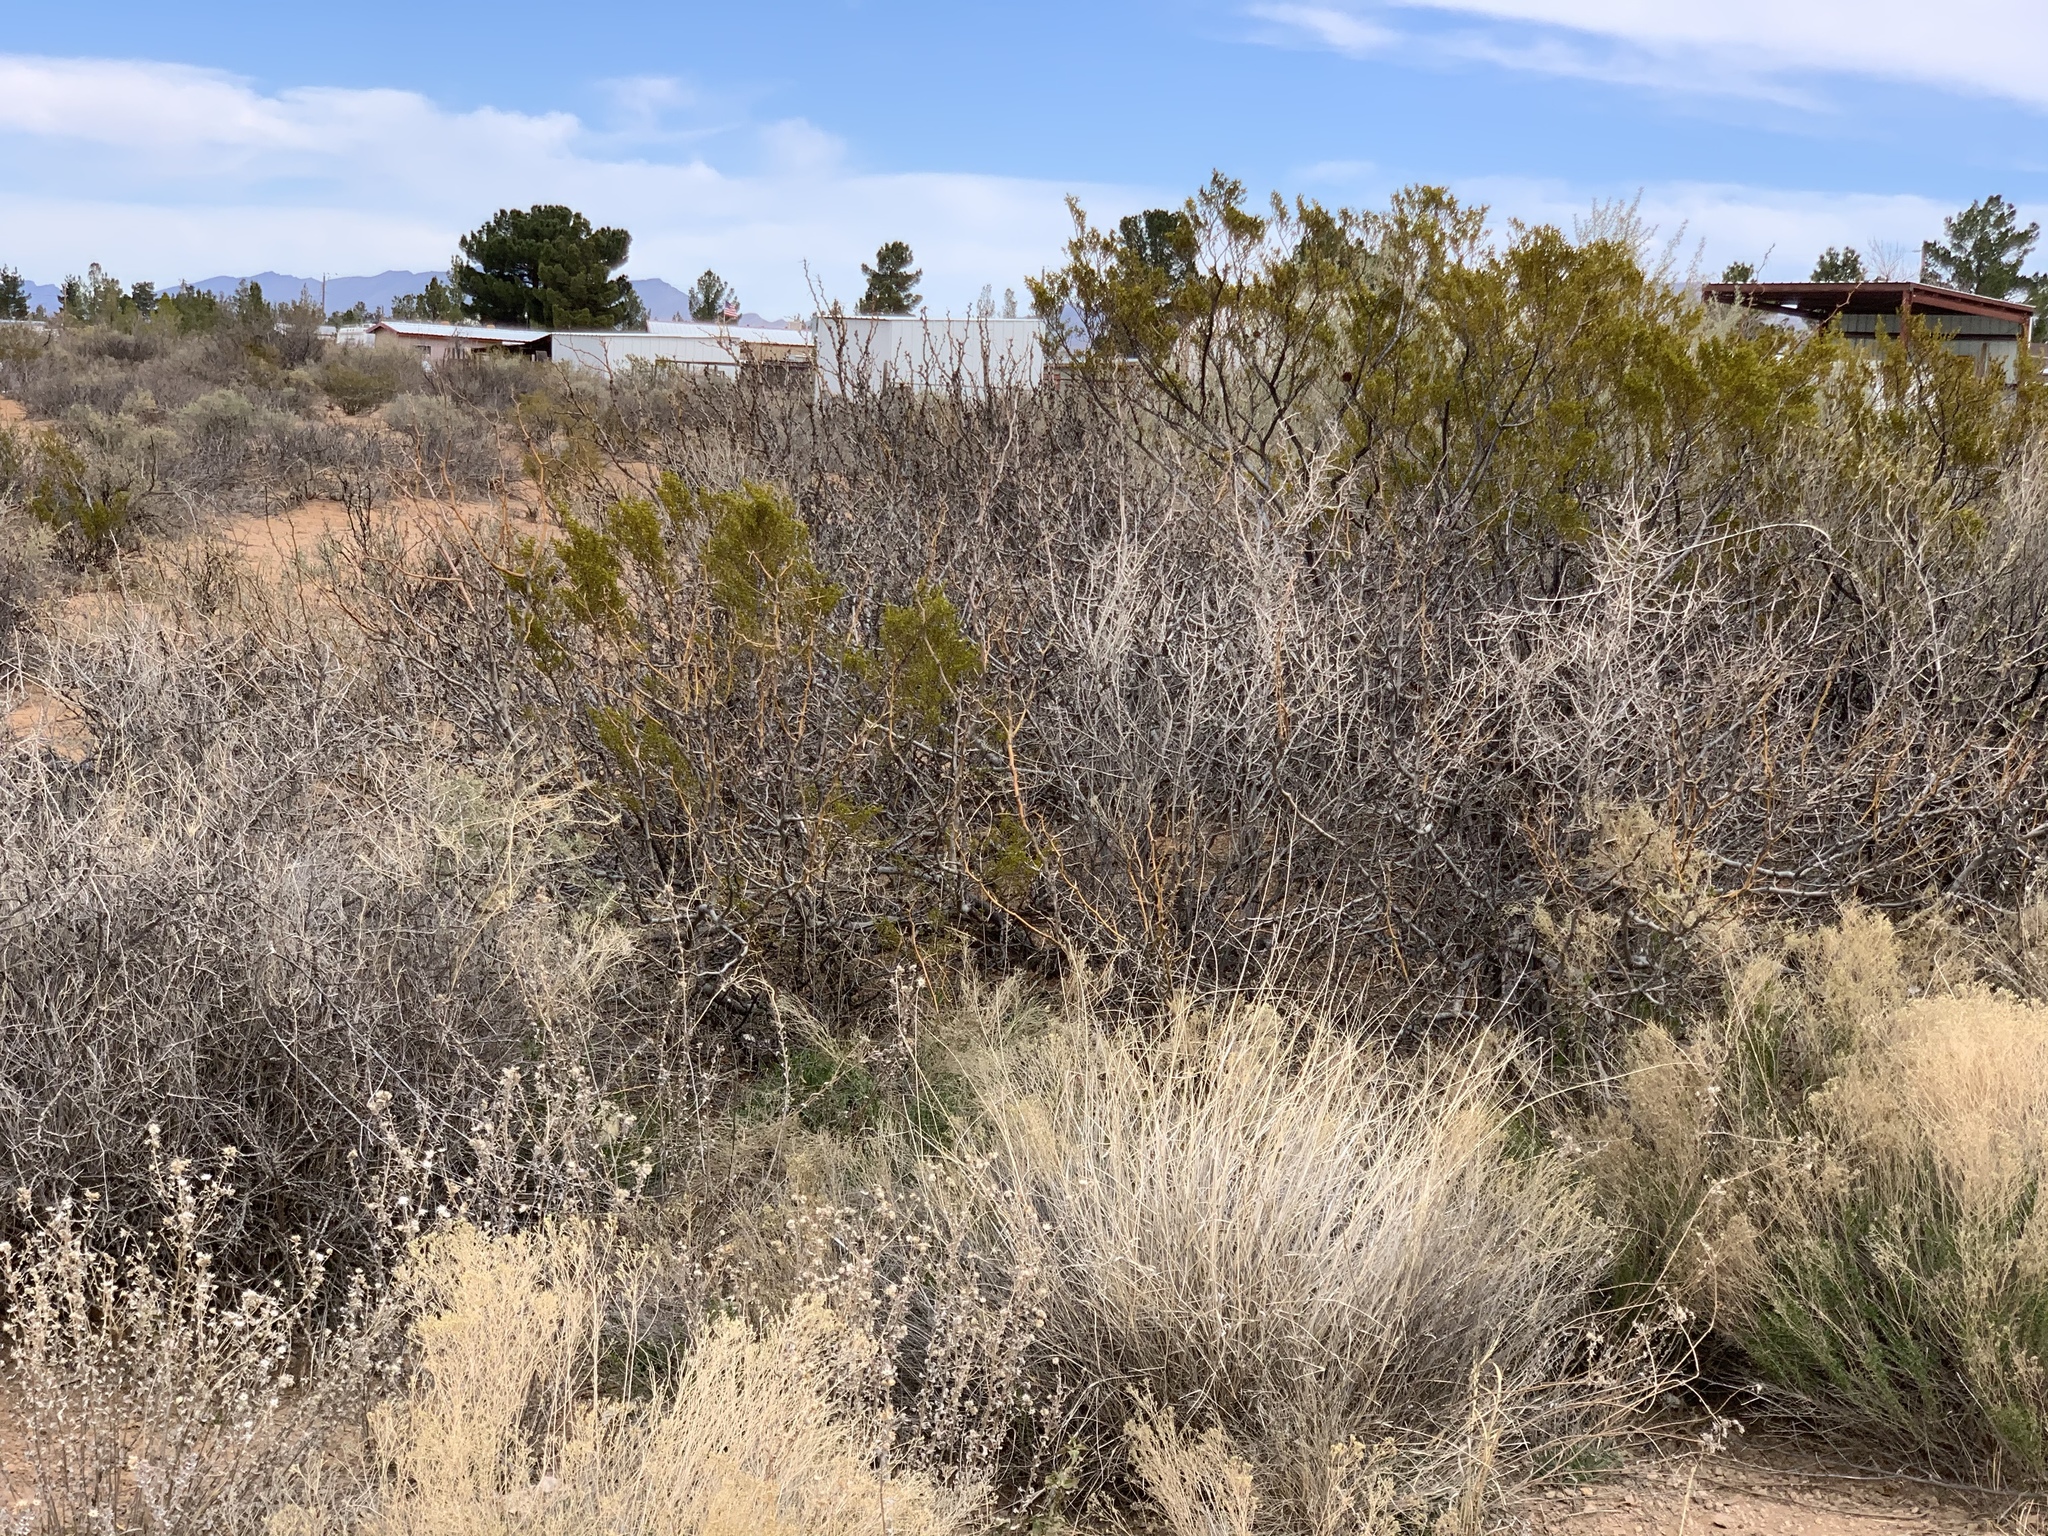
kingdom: Plantae
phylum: Tracheophyta
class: Magnoliopsida
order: Zygophyllales
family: Zygophyllaceae
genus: Larrea
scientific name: Larrea tridentata
